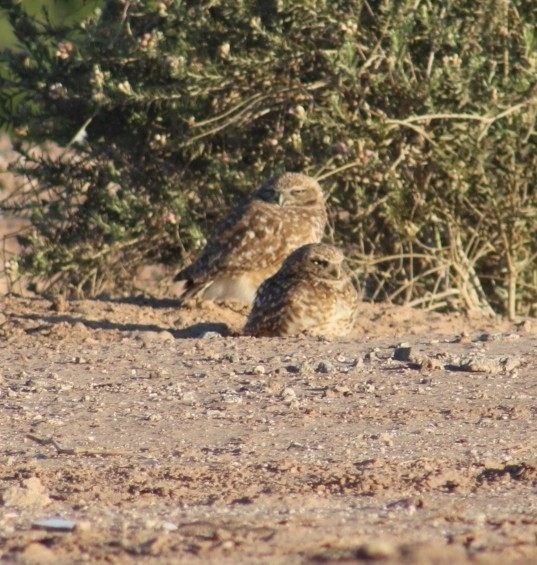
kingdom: Animalia
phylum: Chordata
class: Aves
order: Strigiformes
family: Strigidae
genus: Athene
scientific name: Athene cunicularia
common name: Burrowing owl
